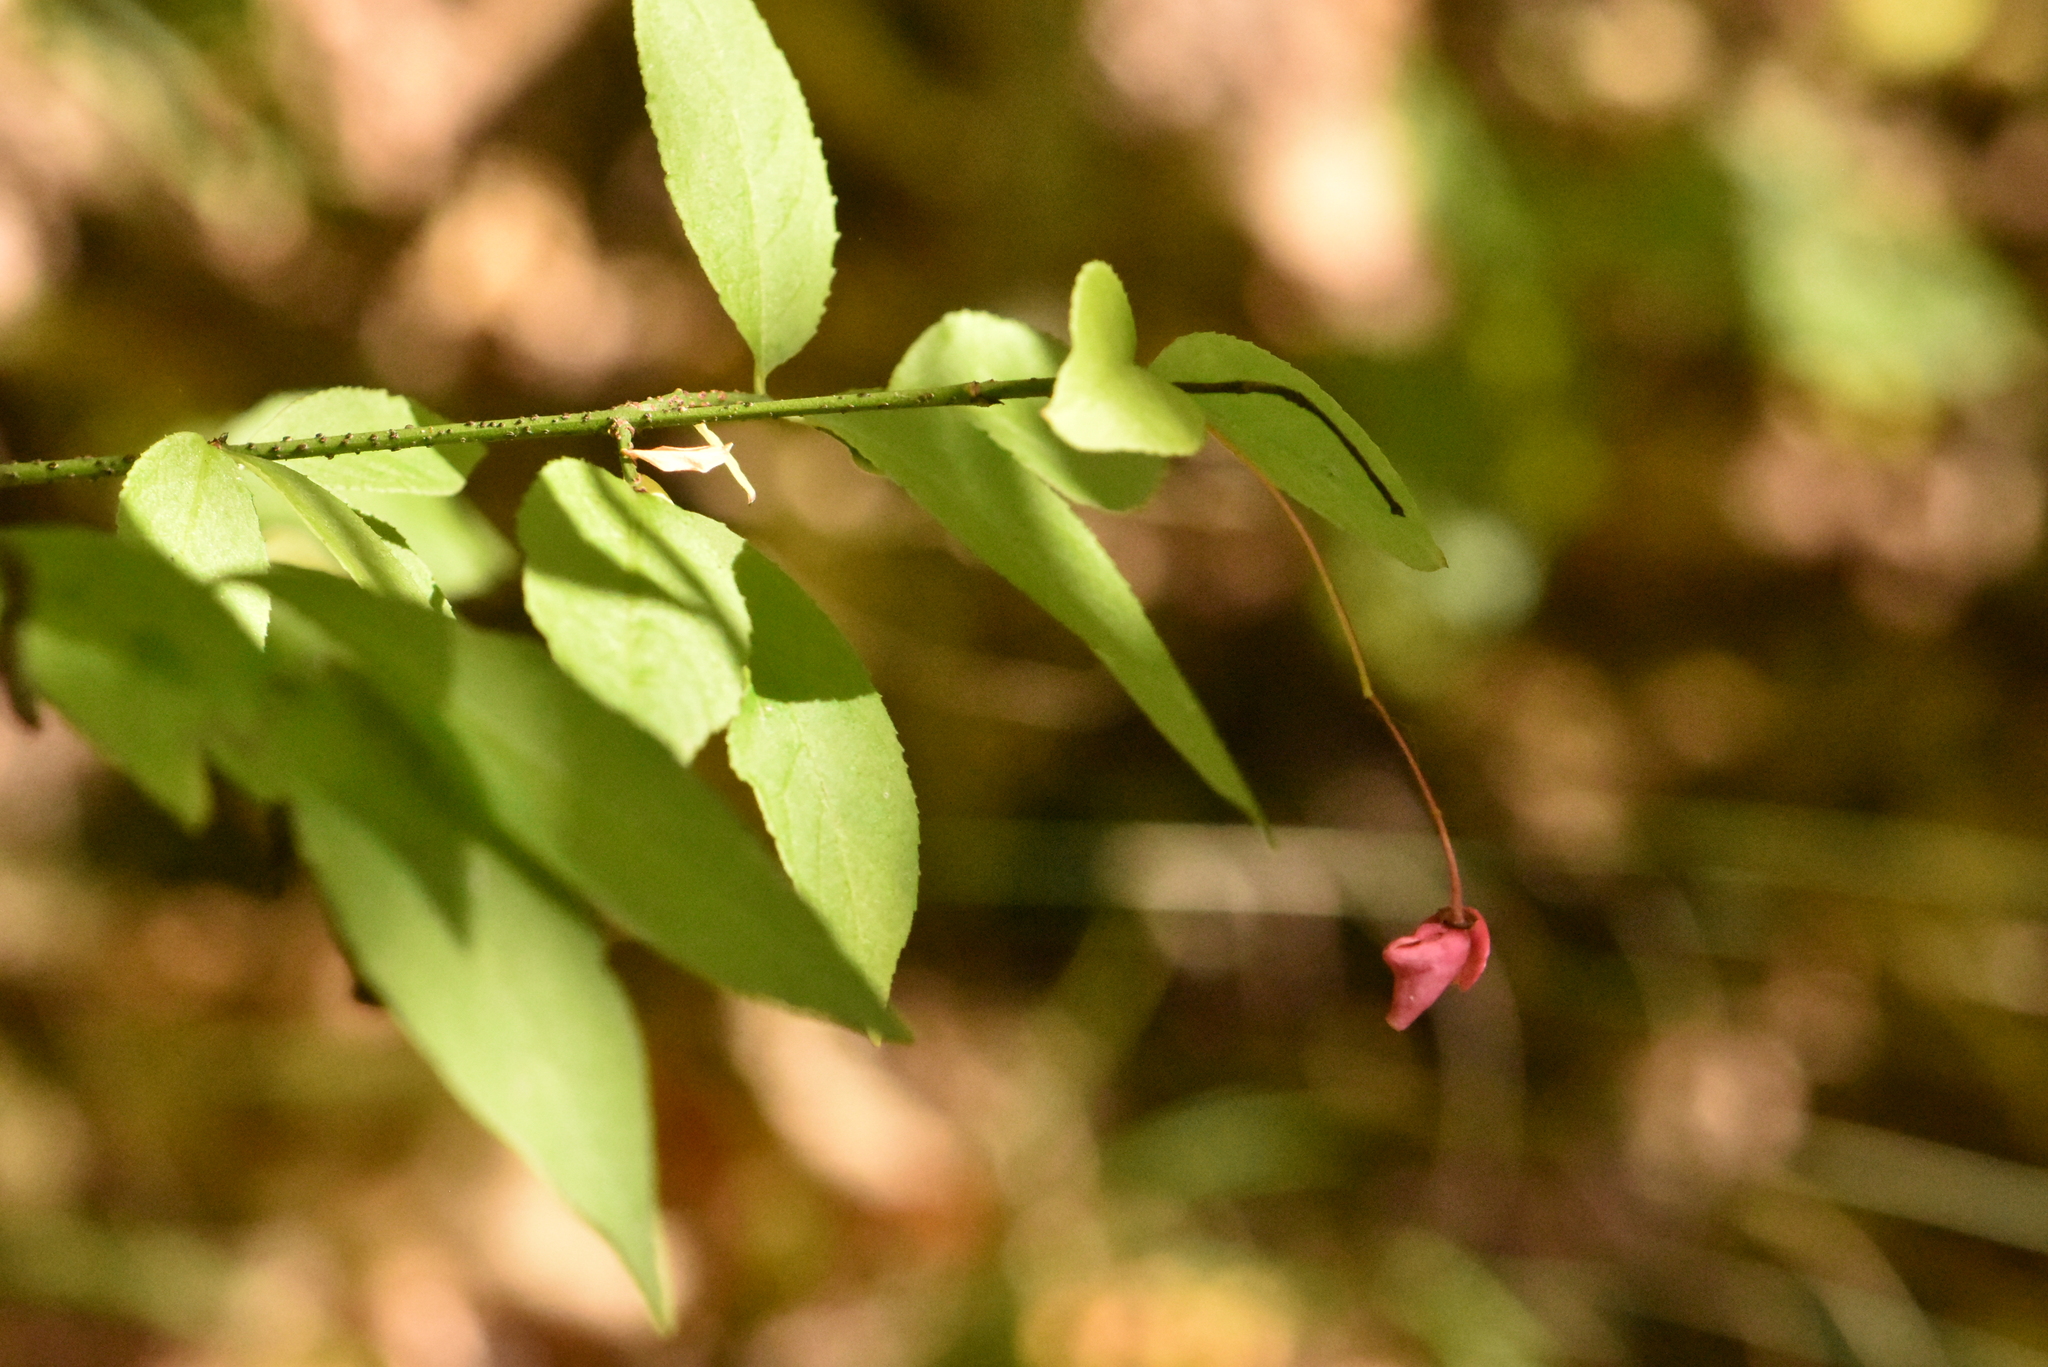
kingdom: Plantae
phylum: Tracheophyta
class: Magnoliopsida
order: Celastrales
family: Celastraceae
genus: Euonymus
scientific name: Euonymus verrucosus
